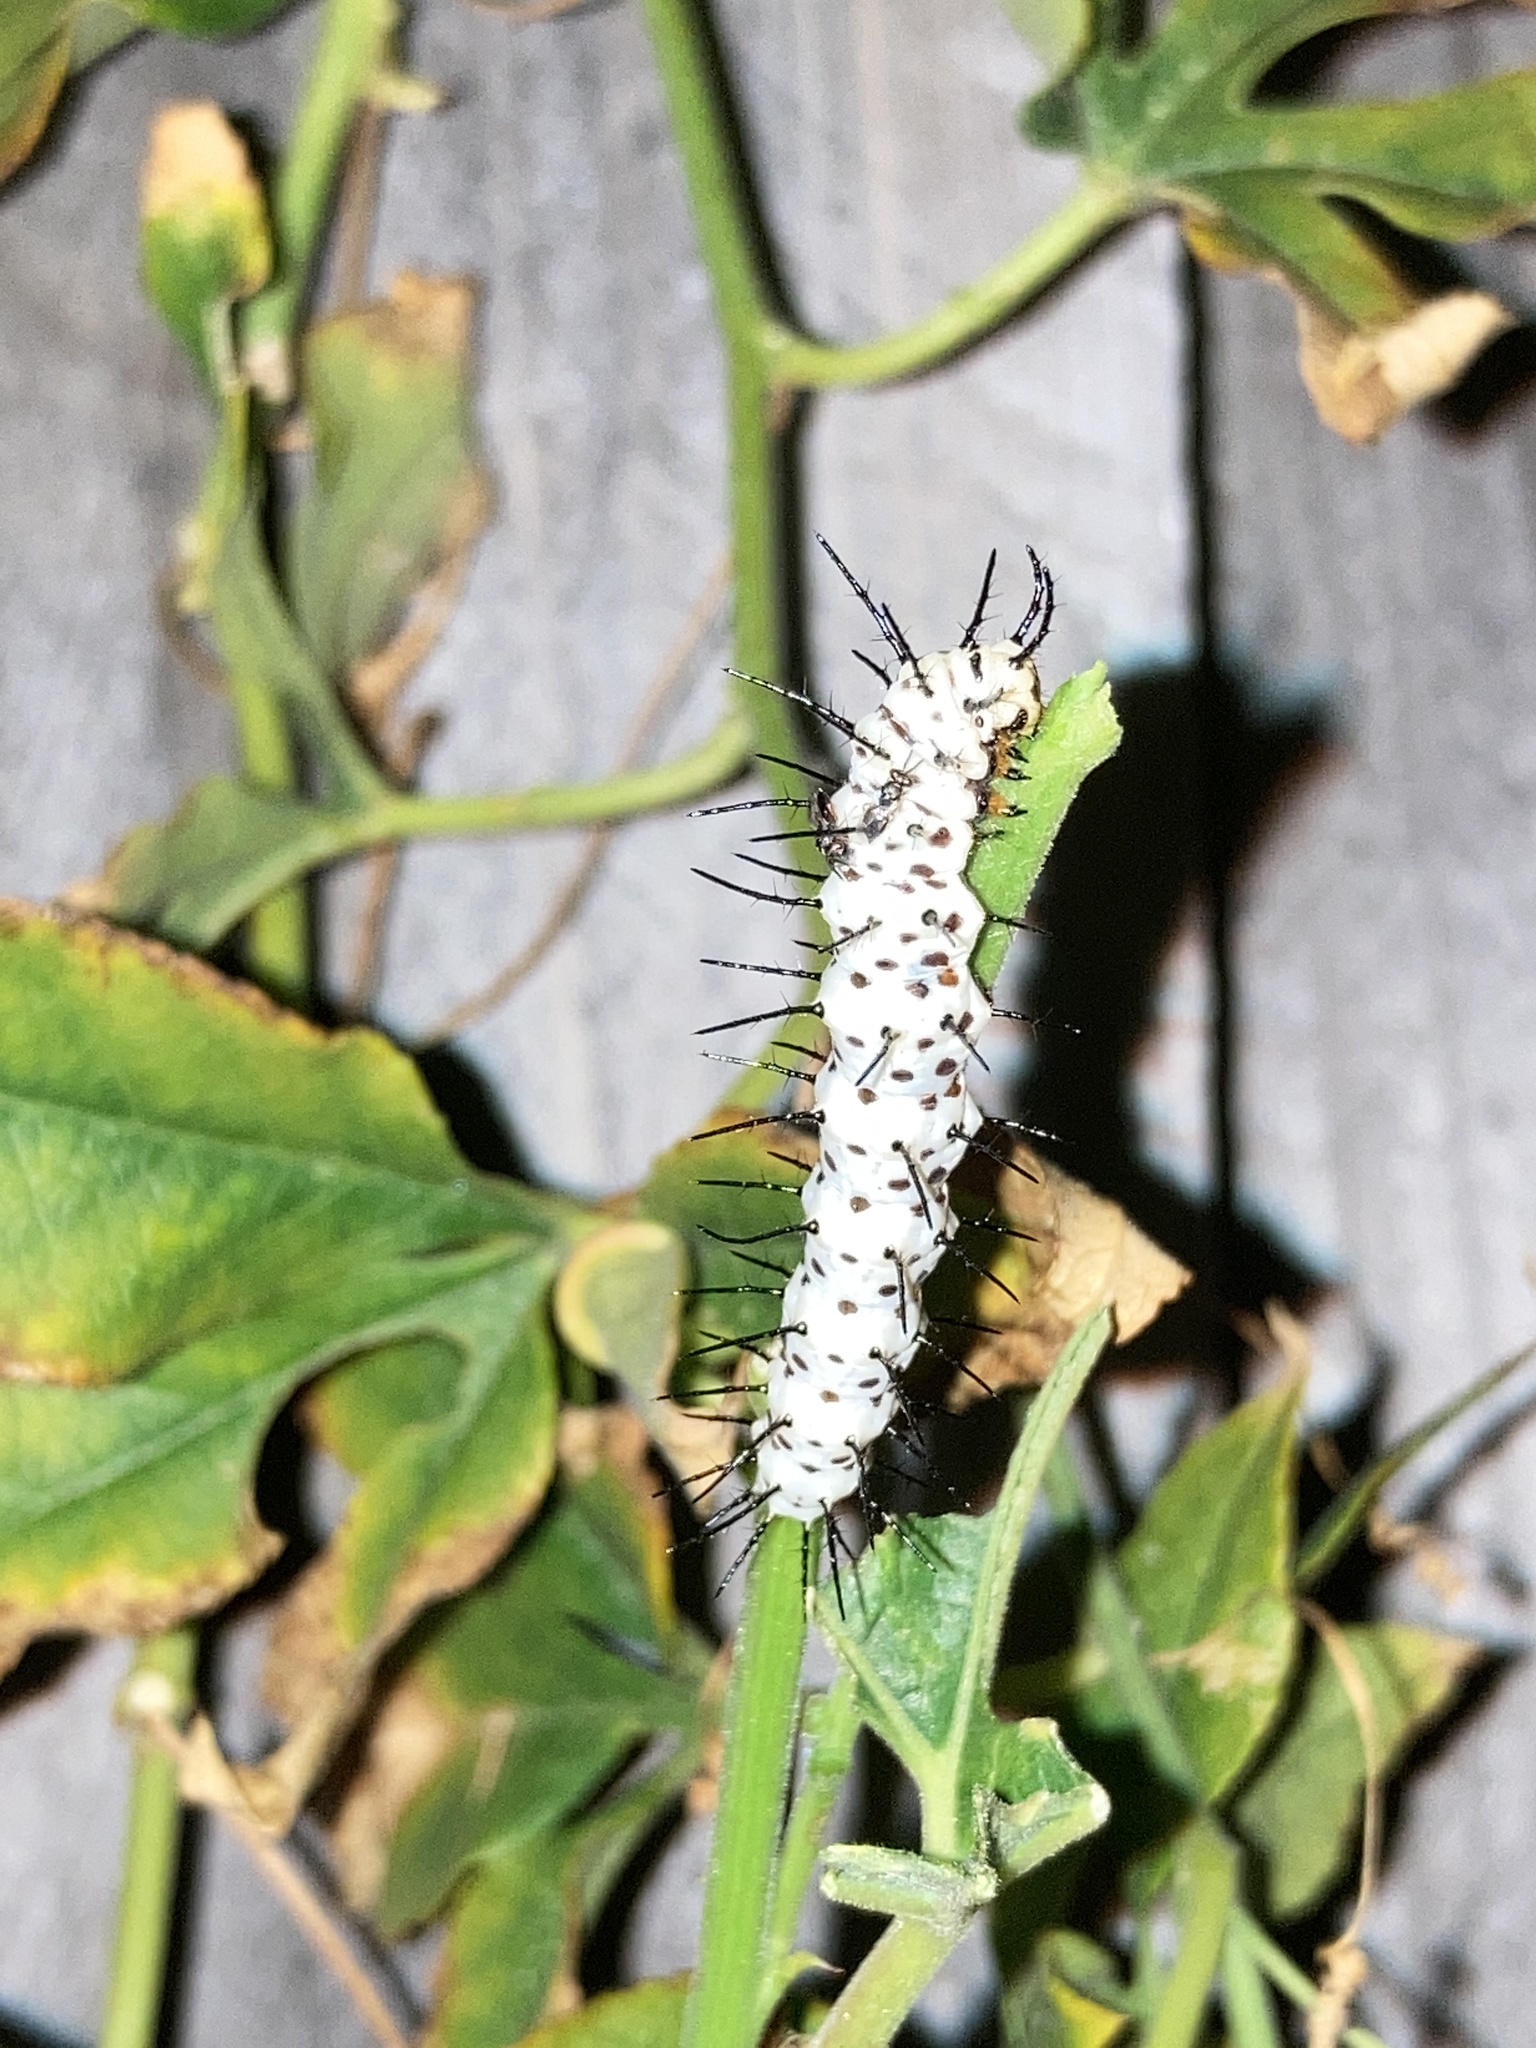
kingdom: Animalia
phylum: Arthropoda
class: Insecta
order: Lepidoptera
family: Nymphalidae
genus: Heliconius
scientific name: Heliconius charithonia
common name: Zebra long wing
